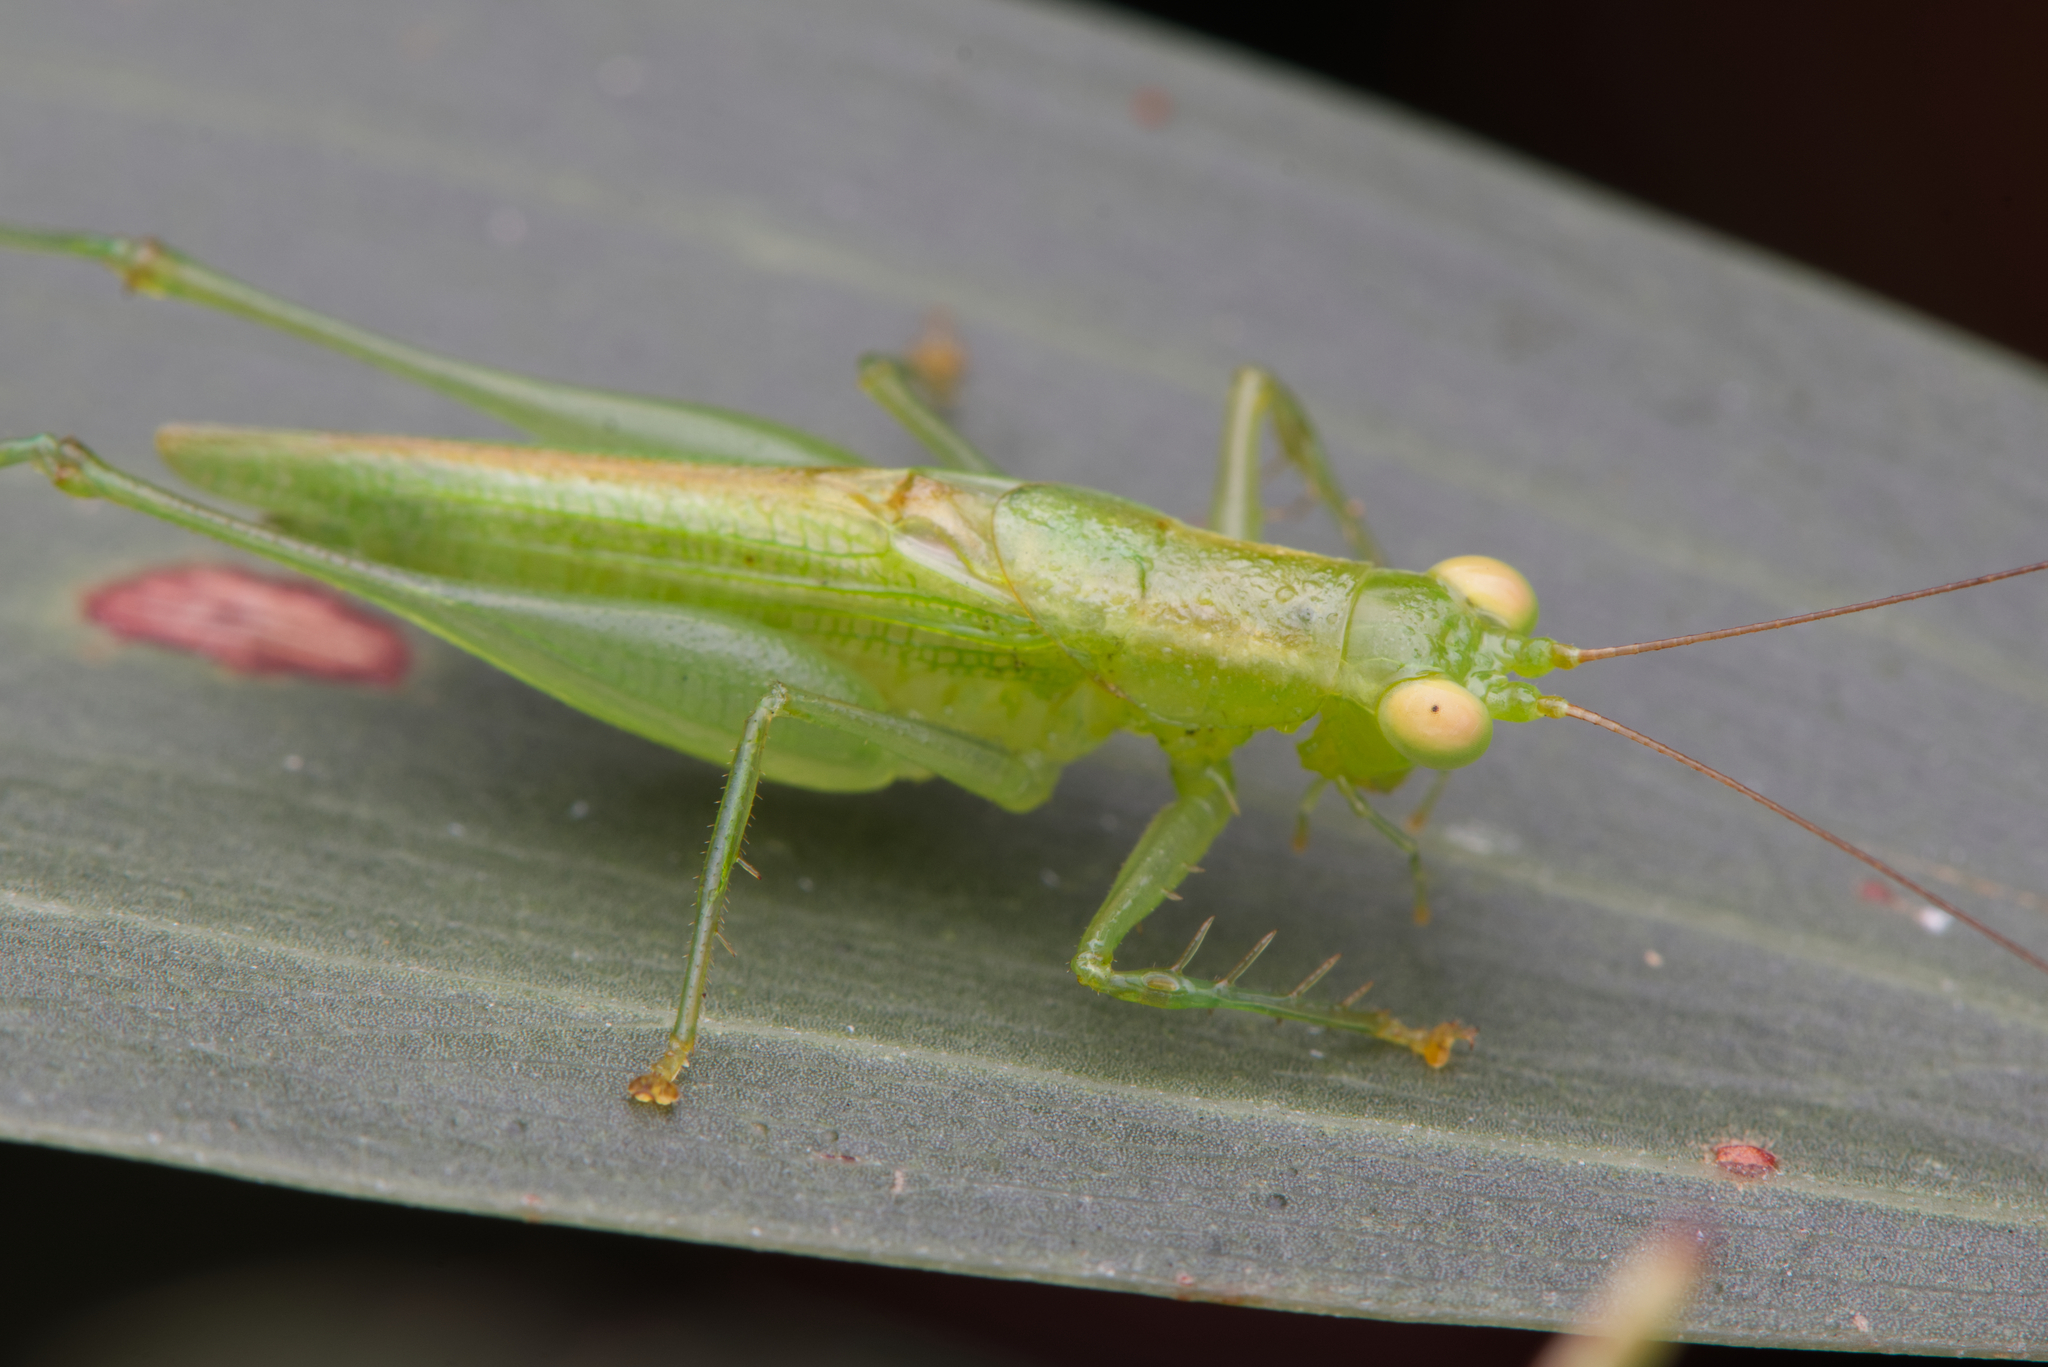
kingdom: Animalia
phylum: Arthropoda
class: Insecta
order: Orthoptera
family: Tettigoniidae
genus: Austrophlugis
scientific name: Austrophlugis debaari
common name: Debaar's swayer
